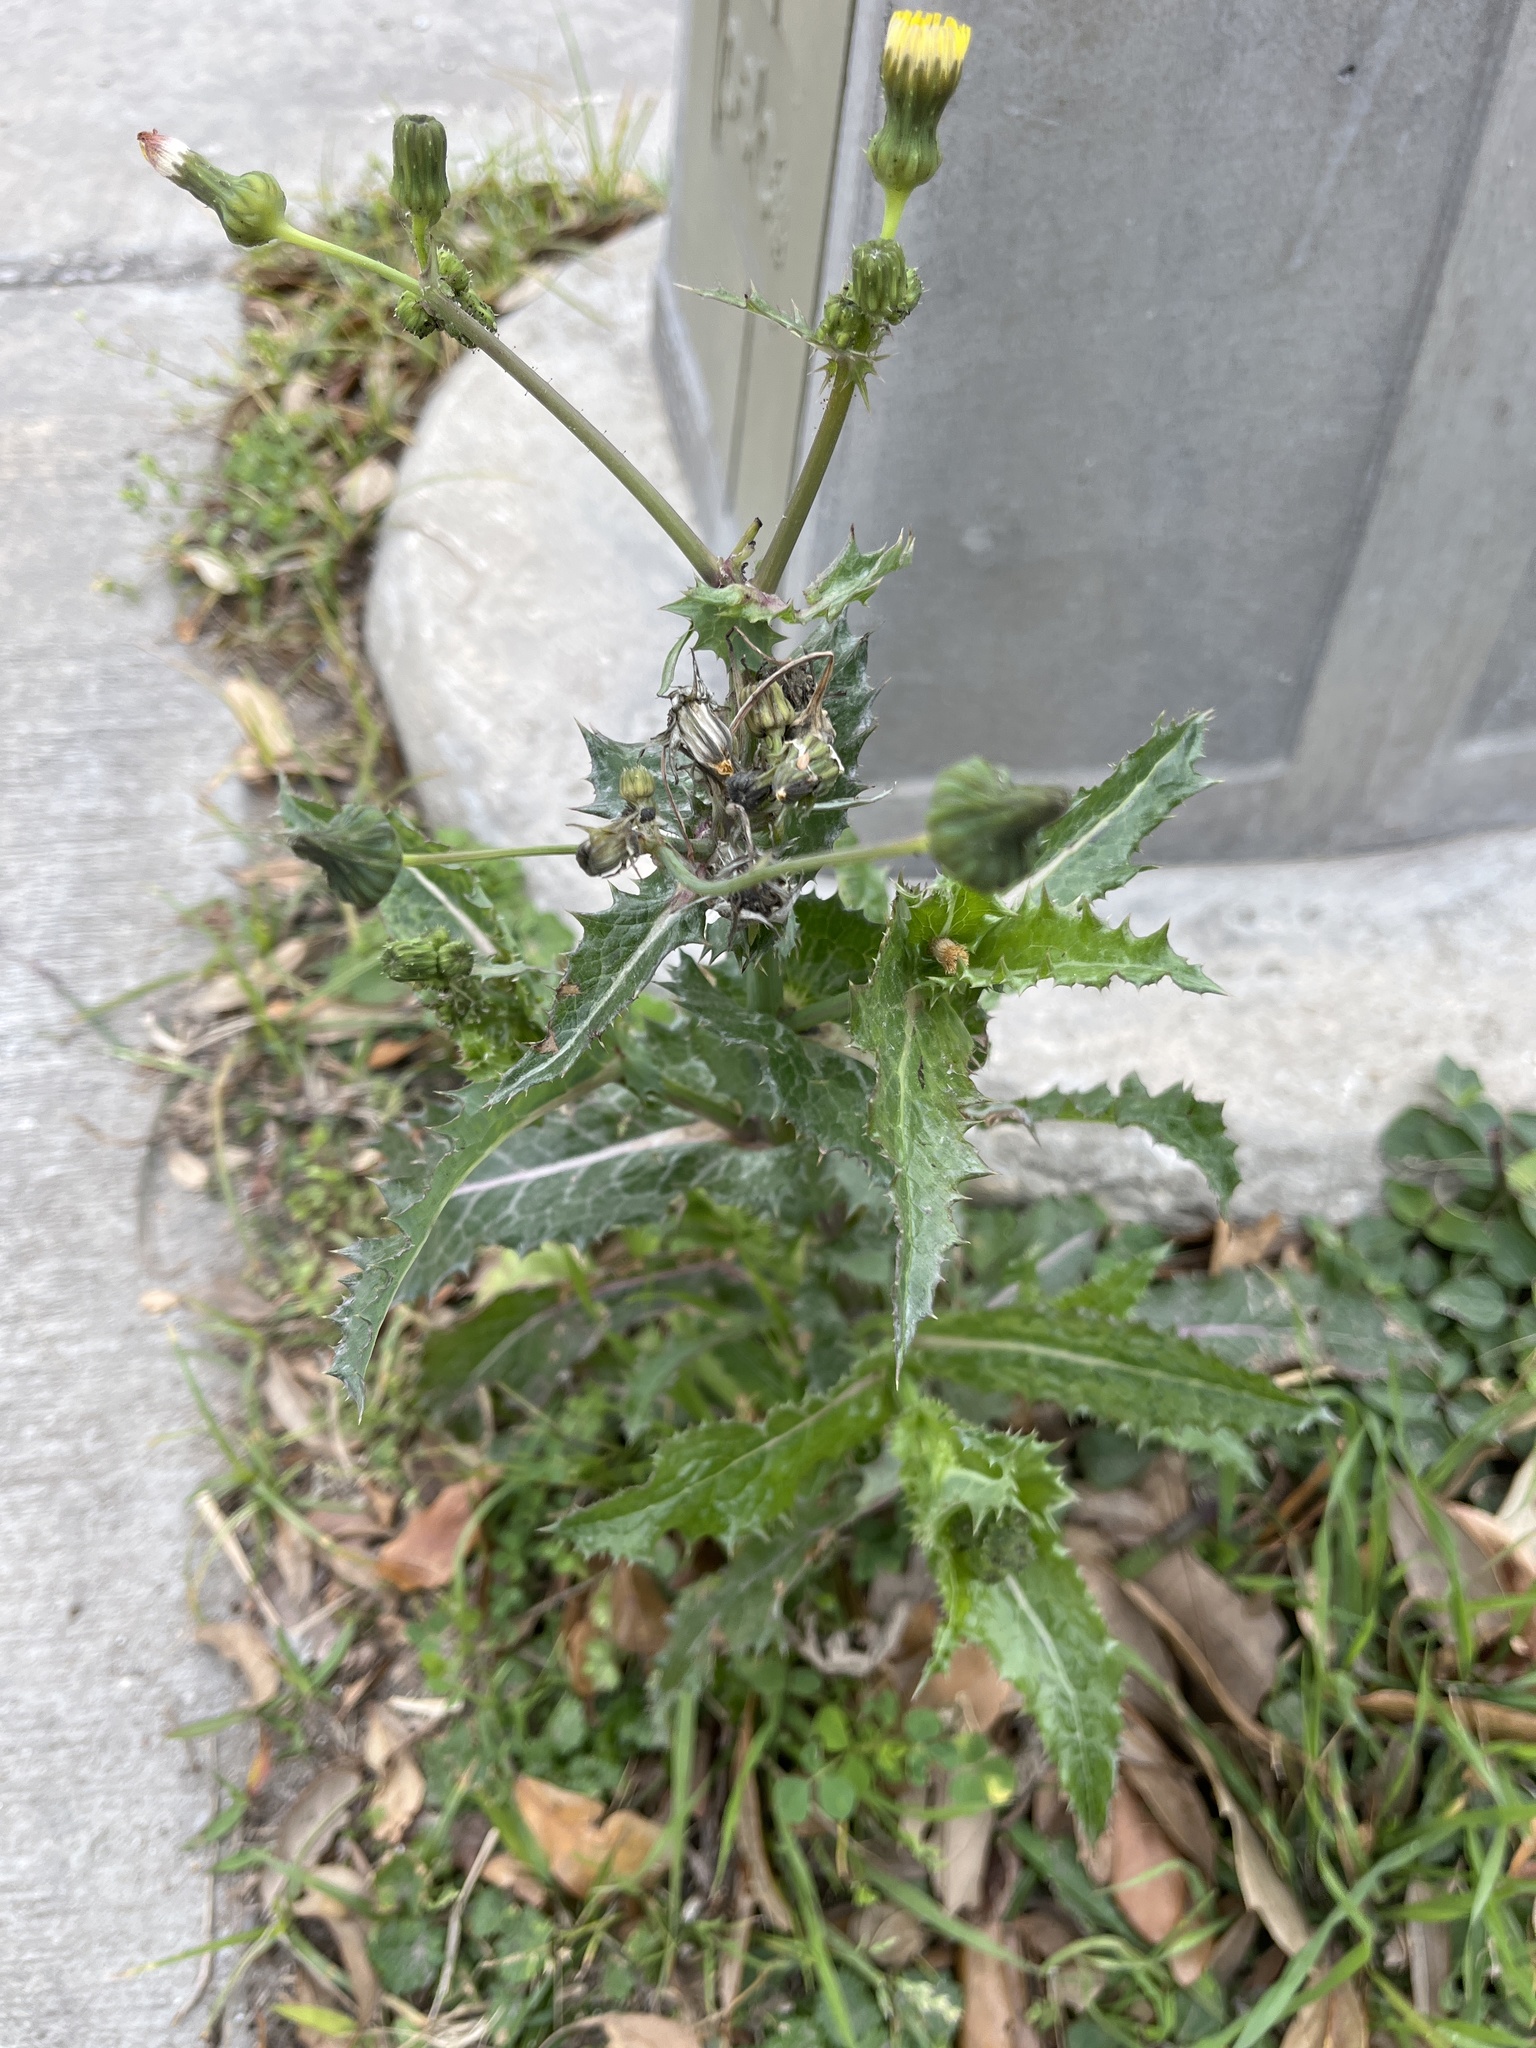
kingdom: Plantae
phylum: Tracheophyta
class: Magnoliopsida
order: Asterales
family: Asteraceae
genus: Sonchus
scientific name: Sonchus asper
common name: Prickly sow-thistle
